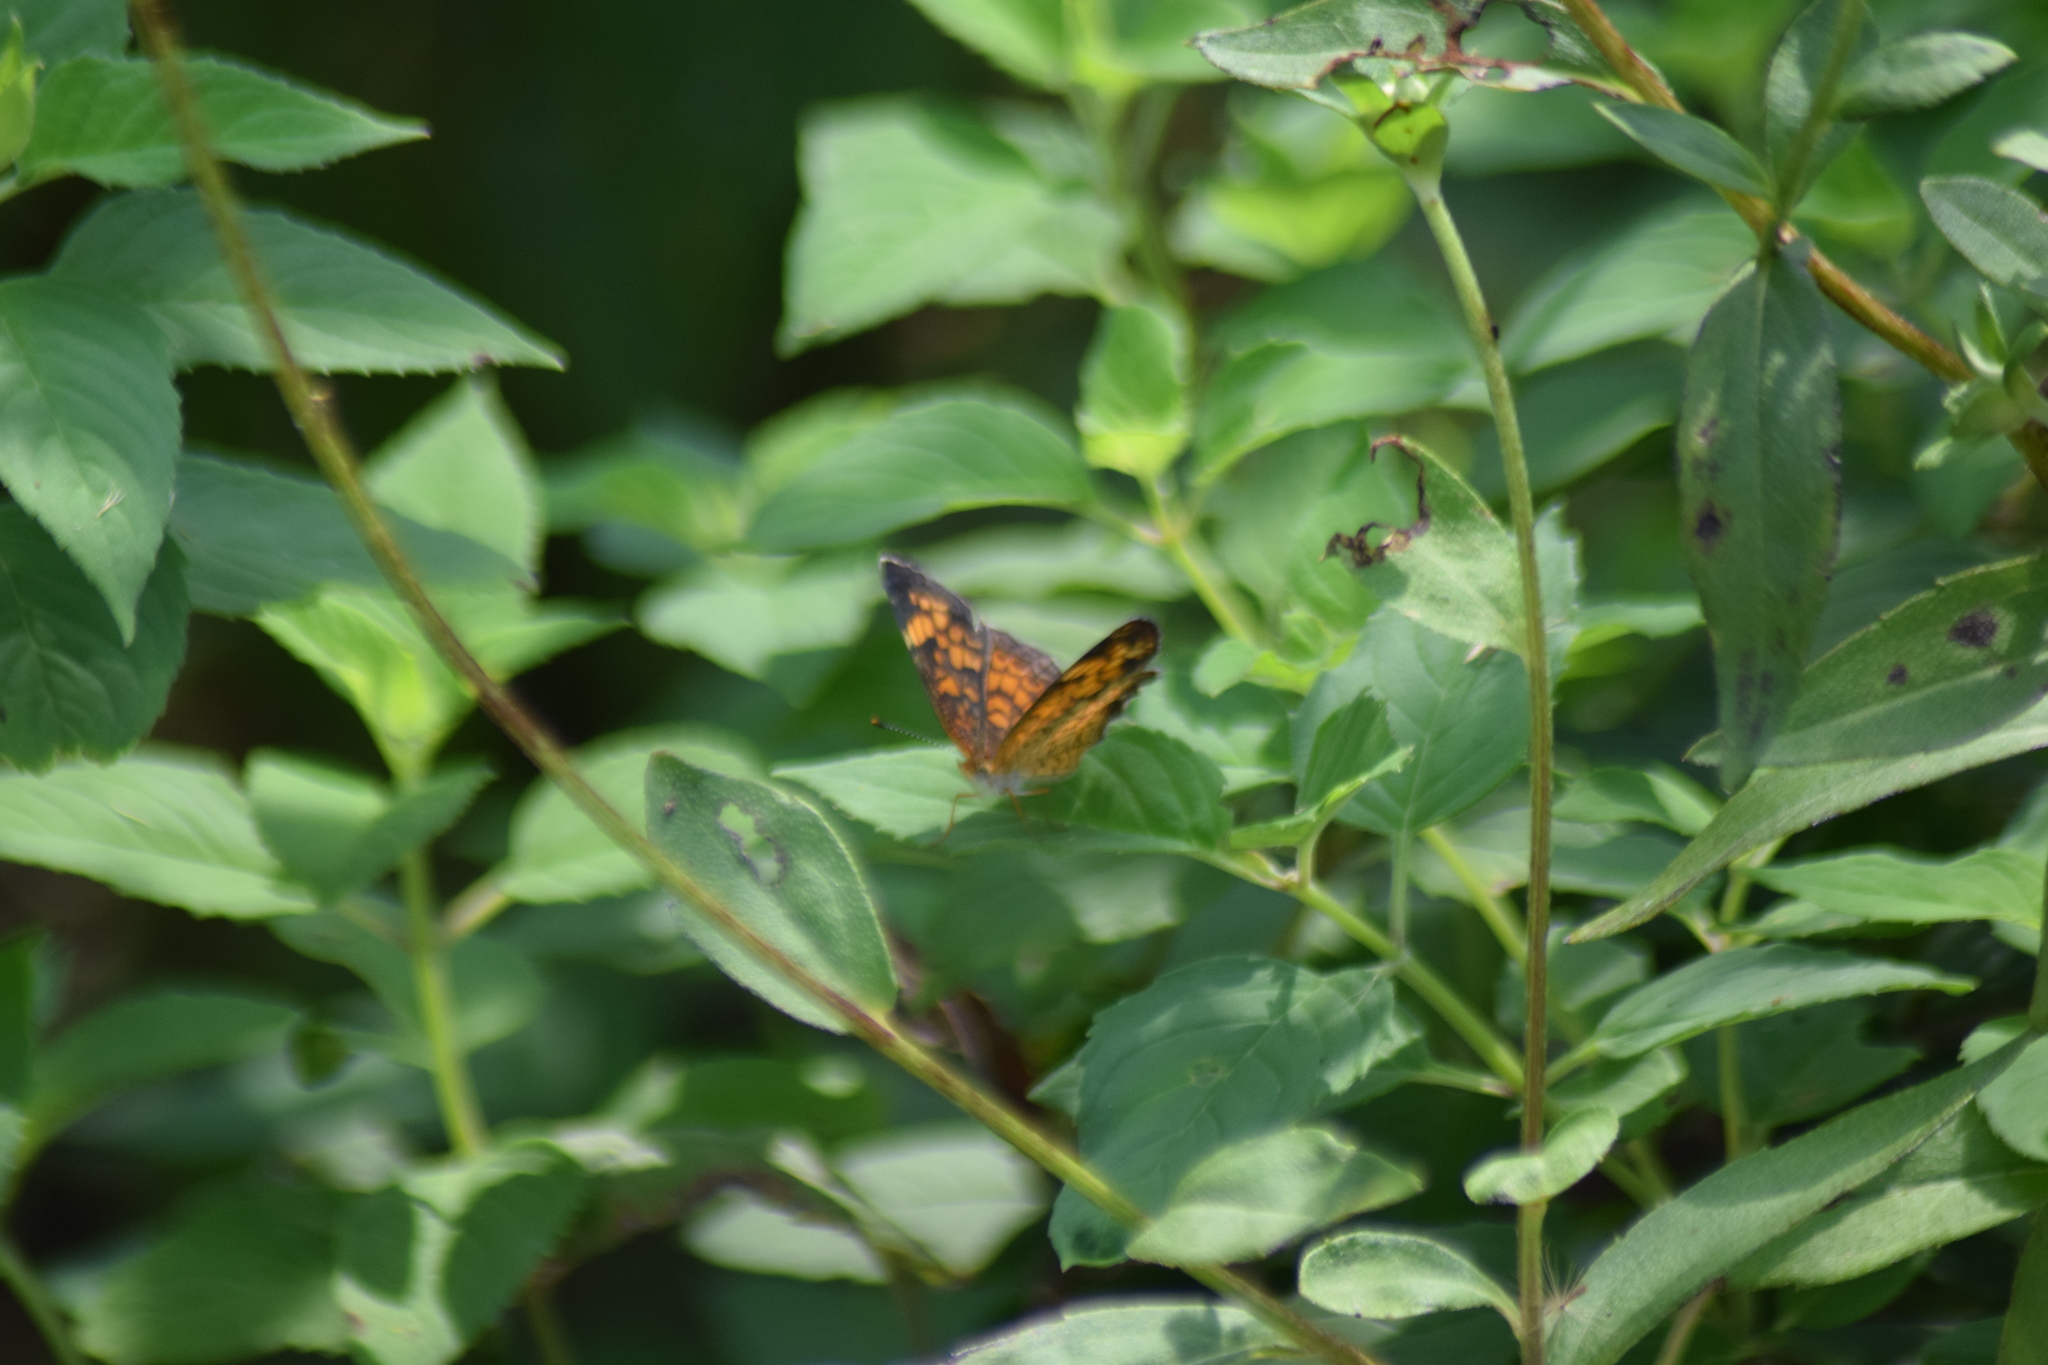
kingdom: Animalia
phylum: Arthropoda
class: Insecta
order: Lepidoptera
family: Nymphalidae
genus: Phyciodes
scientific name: Phyciodes tharos
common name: Pearl crescent
